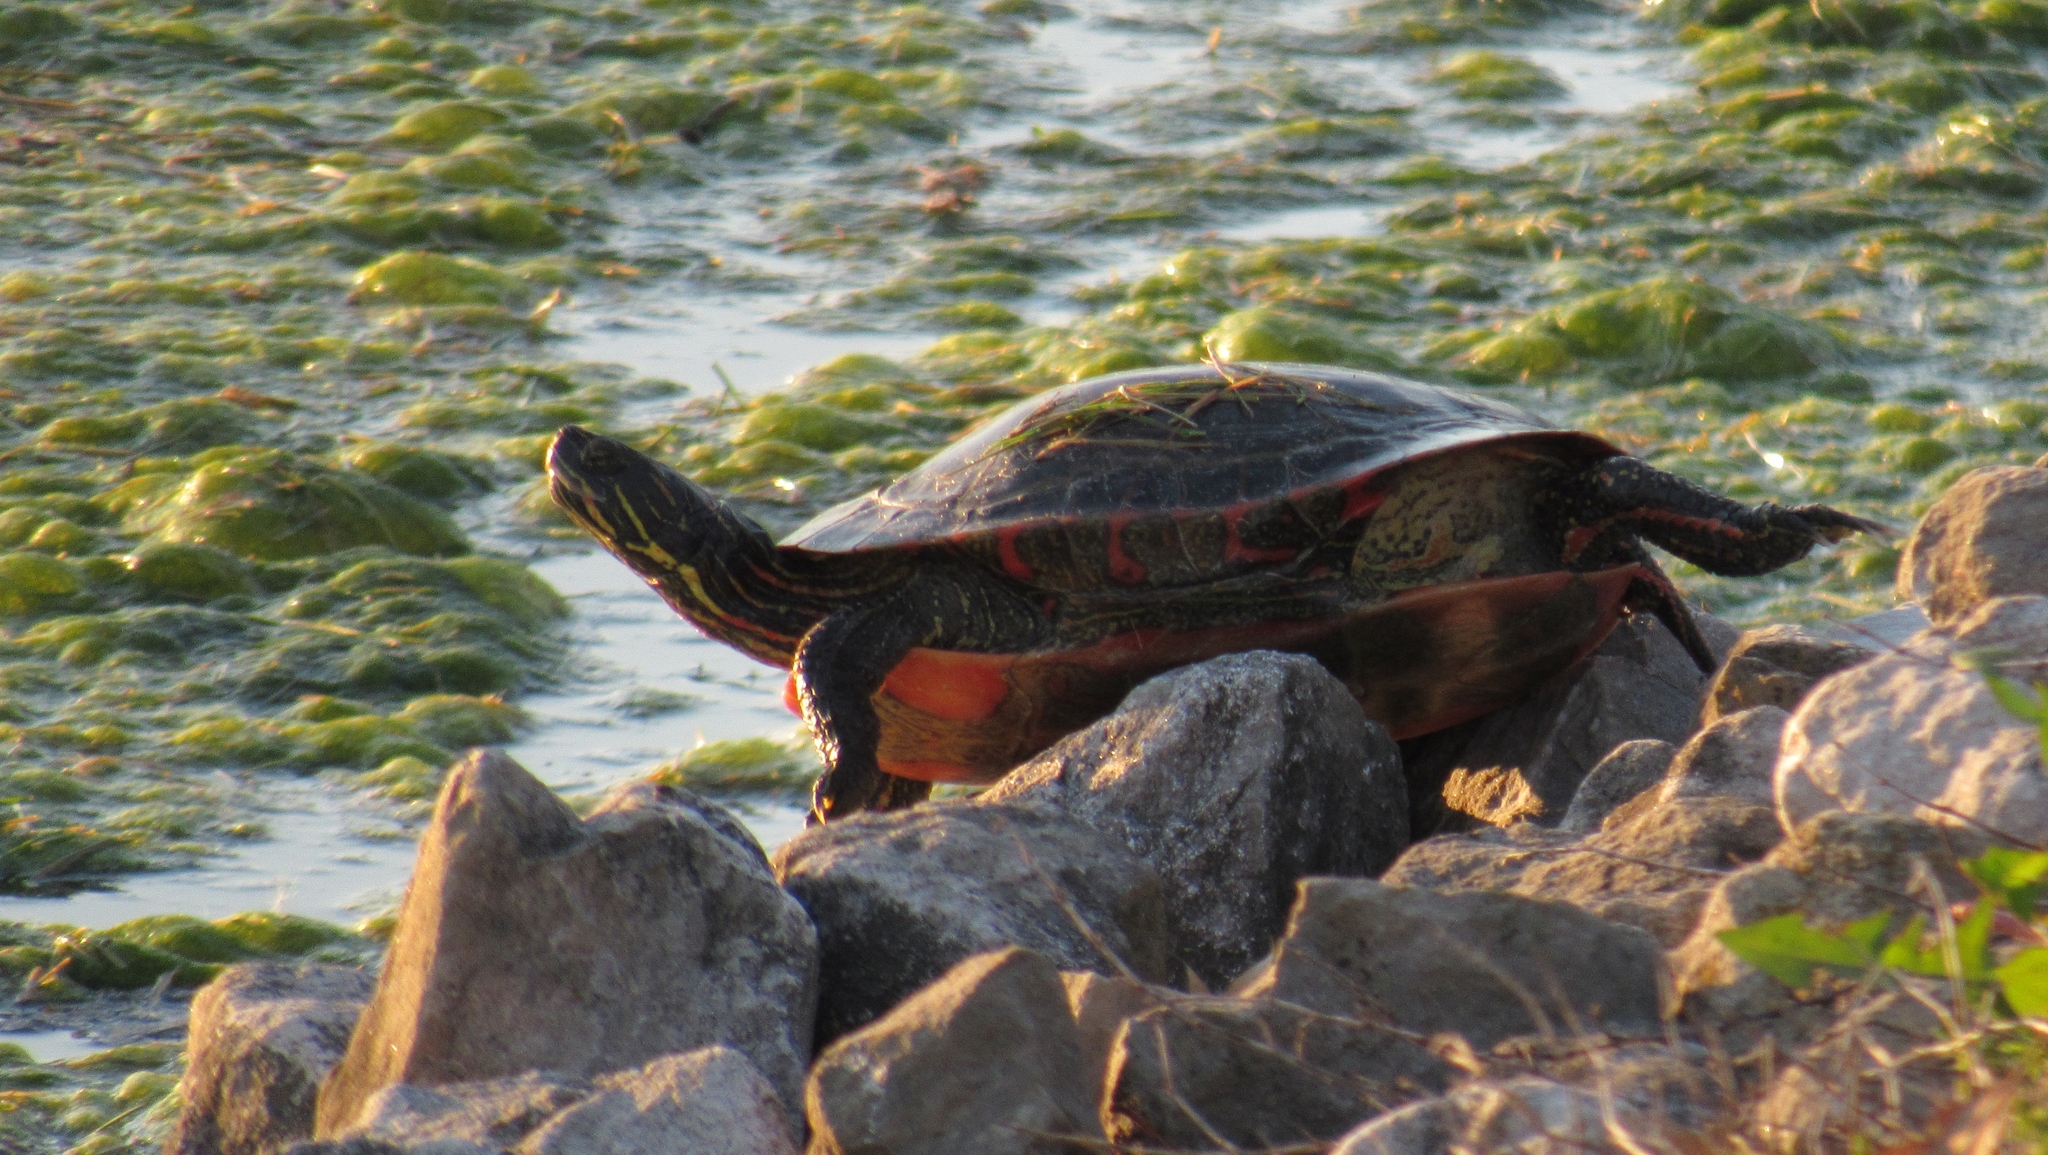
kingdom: Animalia
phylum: Chordata
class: Testudines
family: Emydidae
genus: Chrysemys
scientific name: Chrysemys picta
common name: Painted turtle
